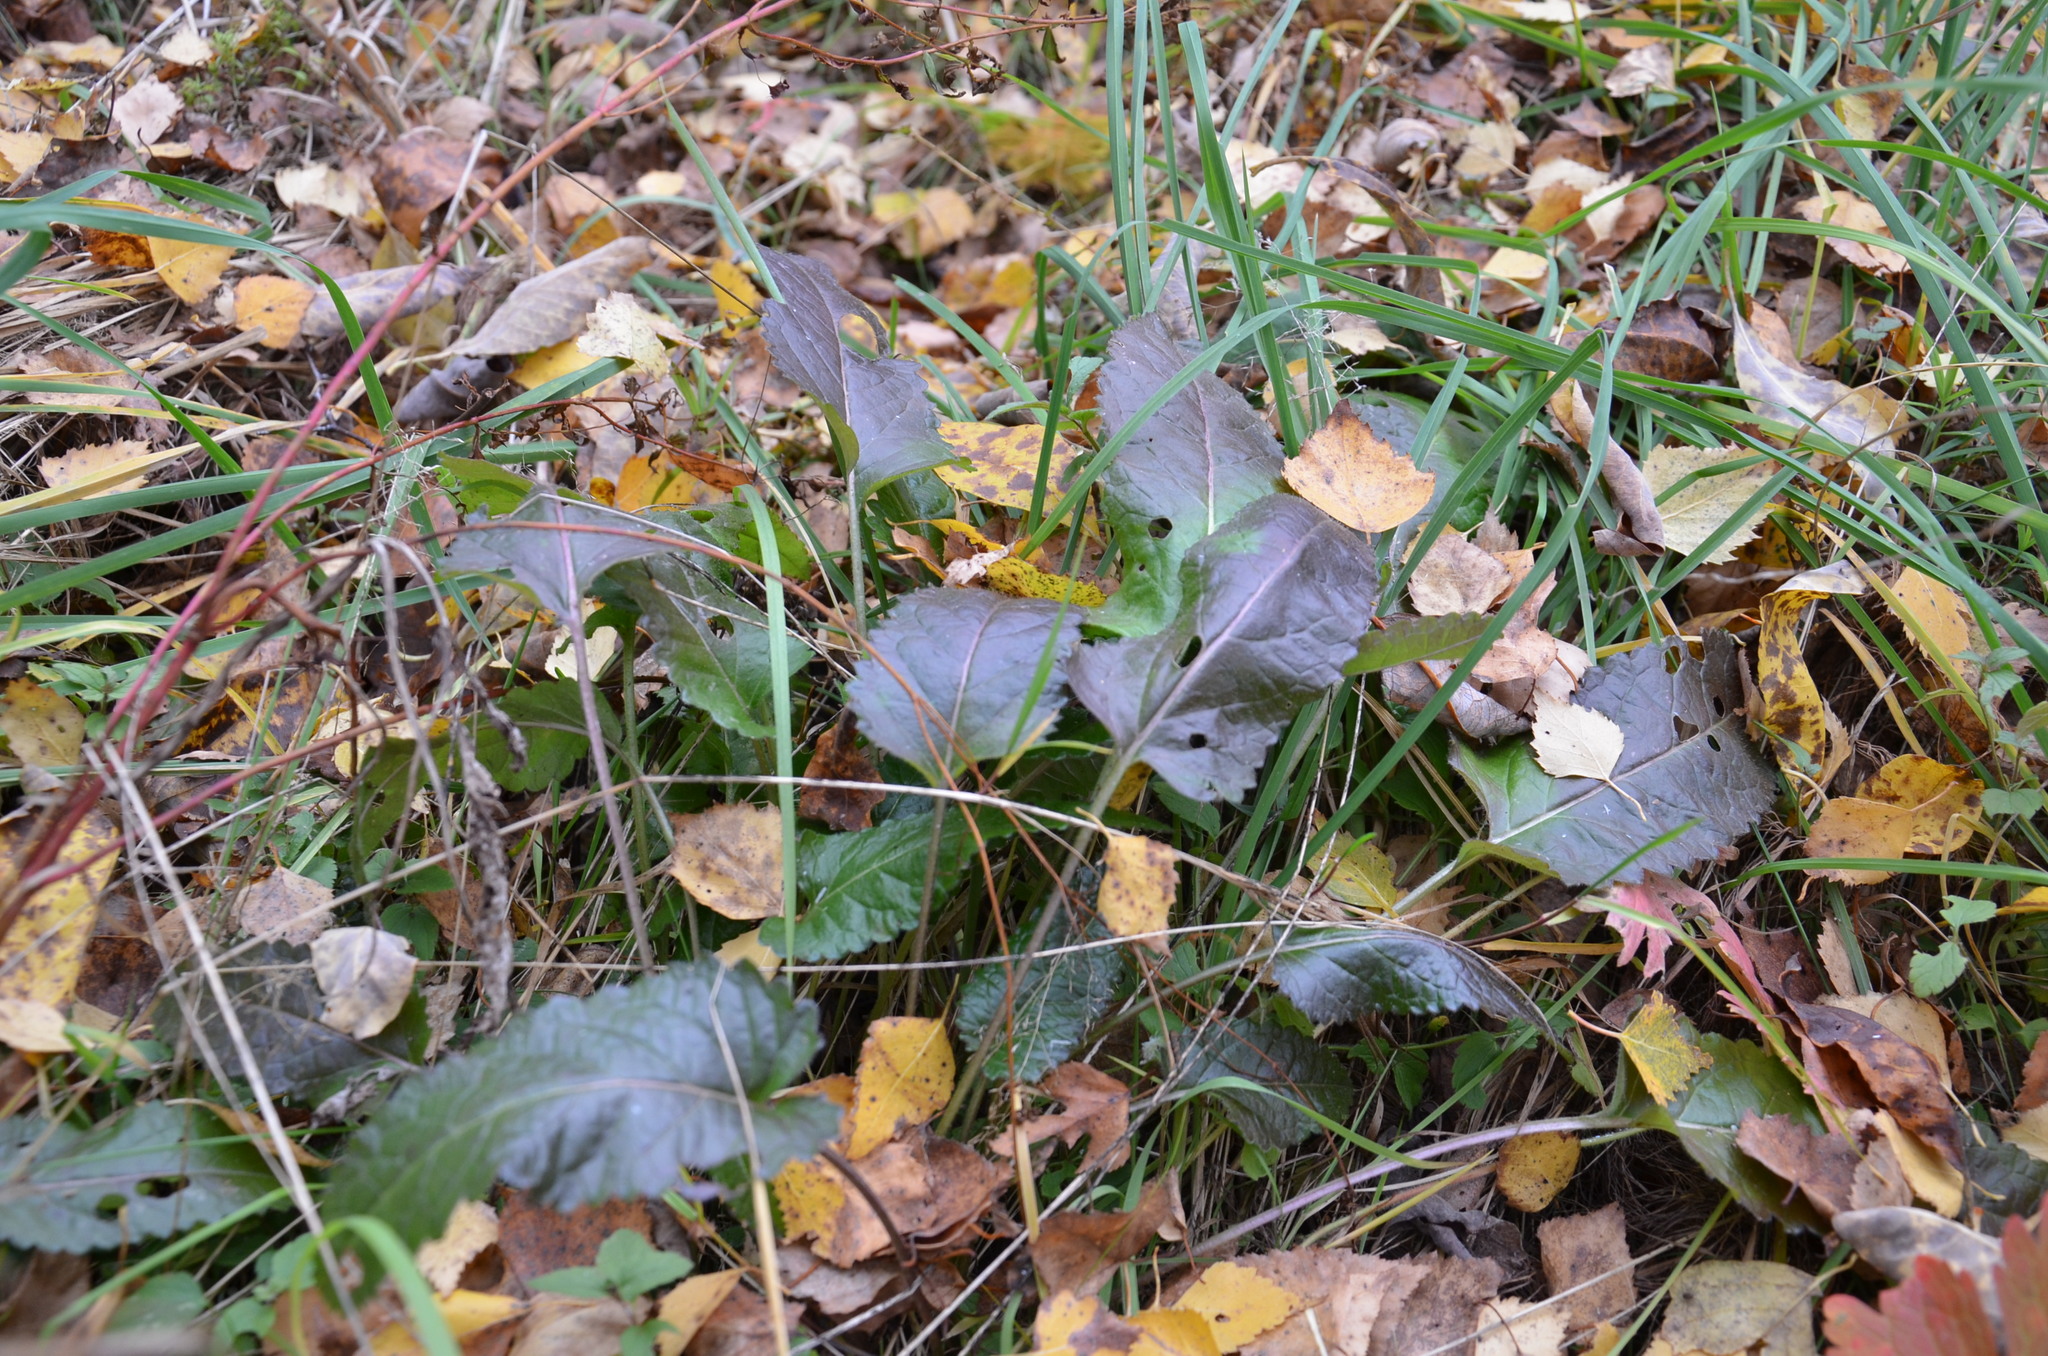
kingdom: Plantae
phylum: Tracheophyta
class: Magnoliopsida
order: Lamiales
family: Lamiaceae
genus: Betonica
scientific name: Betonica officinalis
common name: Bishop's-wort
